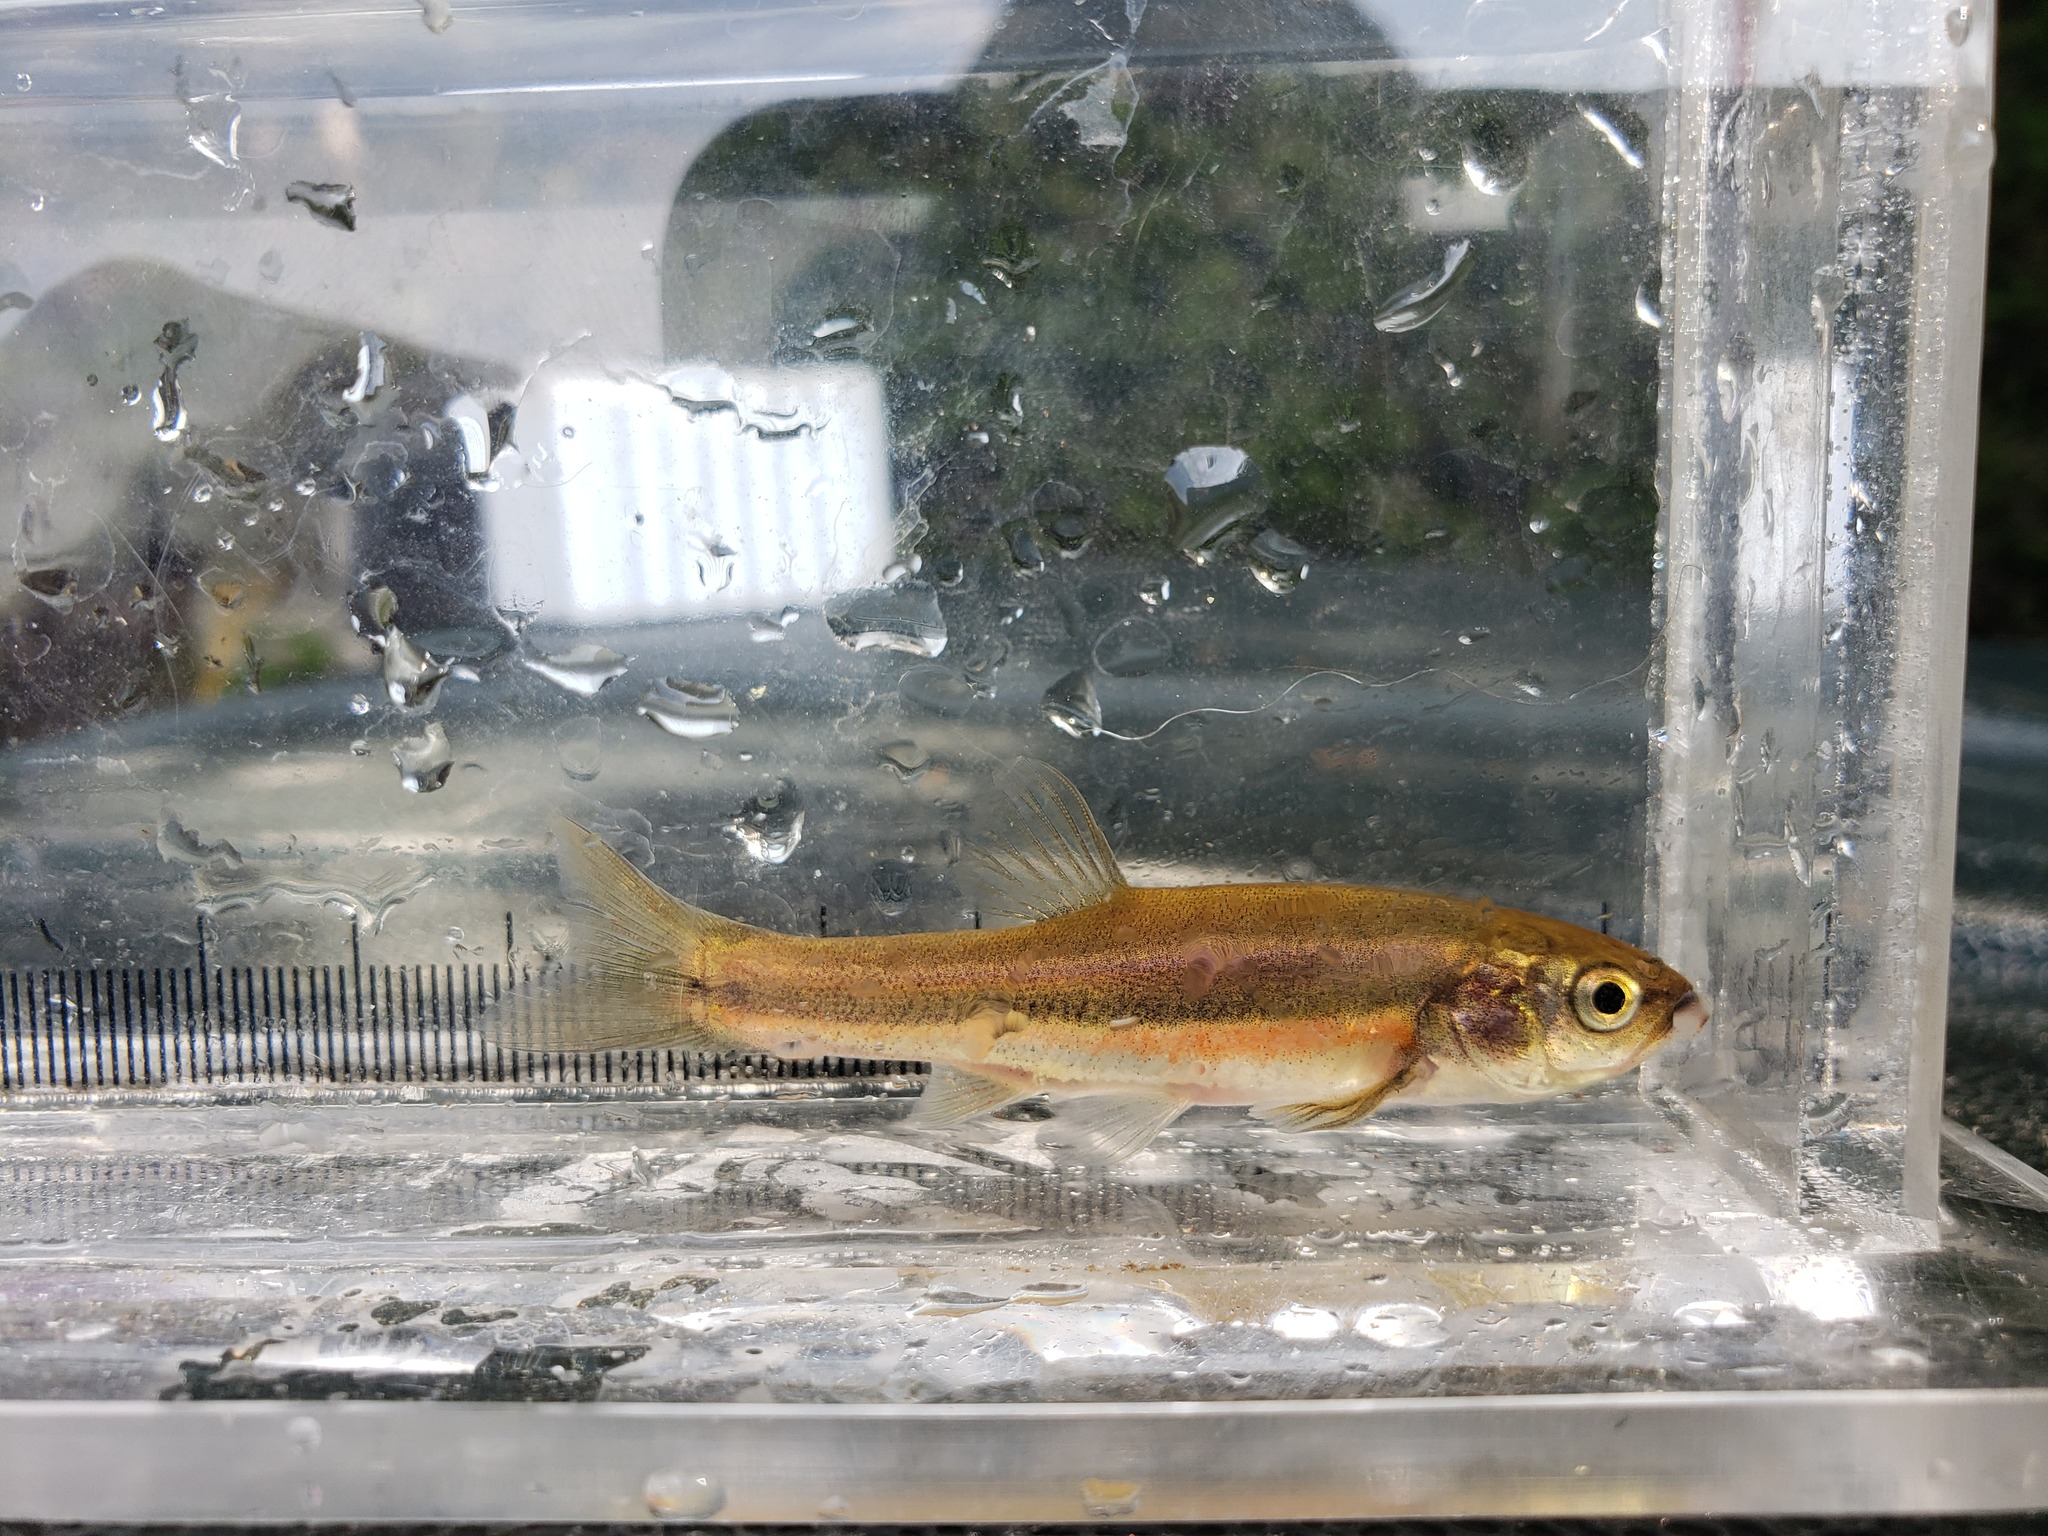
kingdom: Animalia
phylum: Chordata
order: Cypriniformes
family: Cyprinidae
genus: Chrosomus
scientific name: Chrosomus neogaeus
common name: Finescale dace
